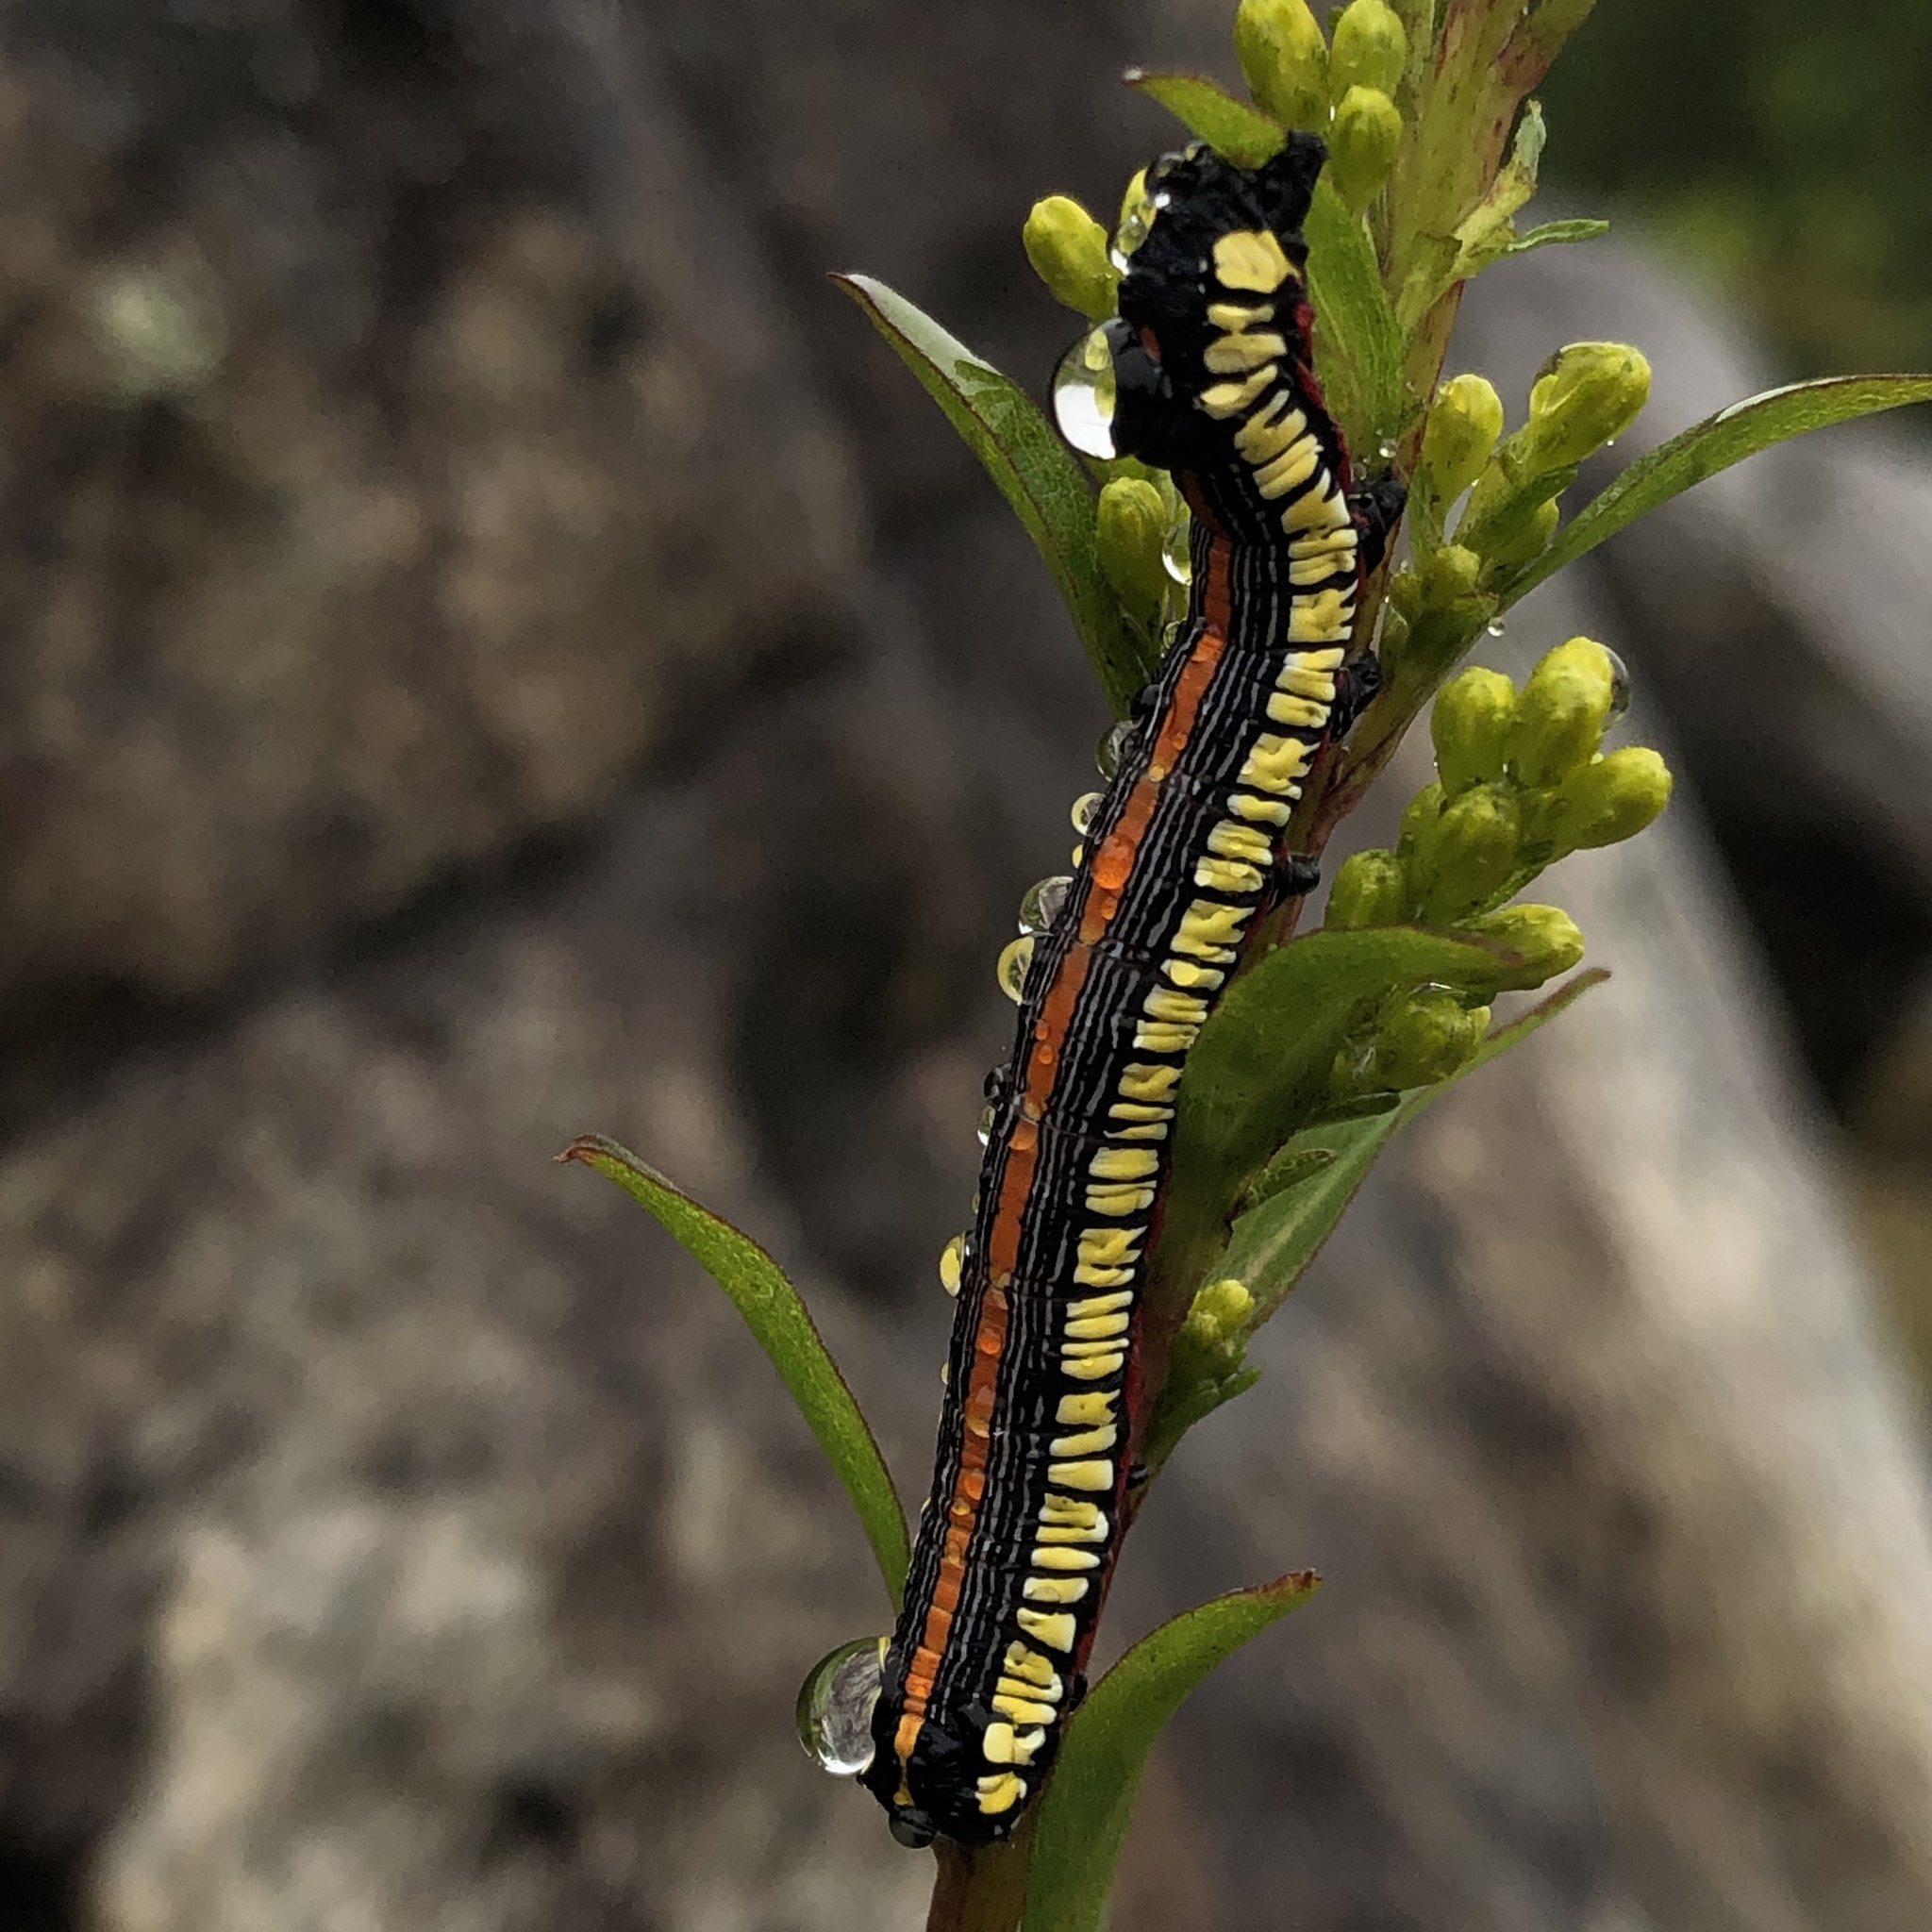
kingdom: Animalia
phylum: Arthropoda
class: Insecta
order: Lepidoptera
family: Noctuidae
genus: Cucullia
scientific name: Cucullia convexipennis
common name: Brown-hooded owlet
